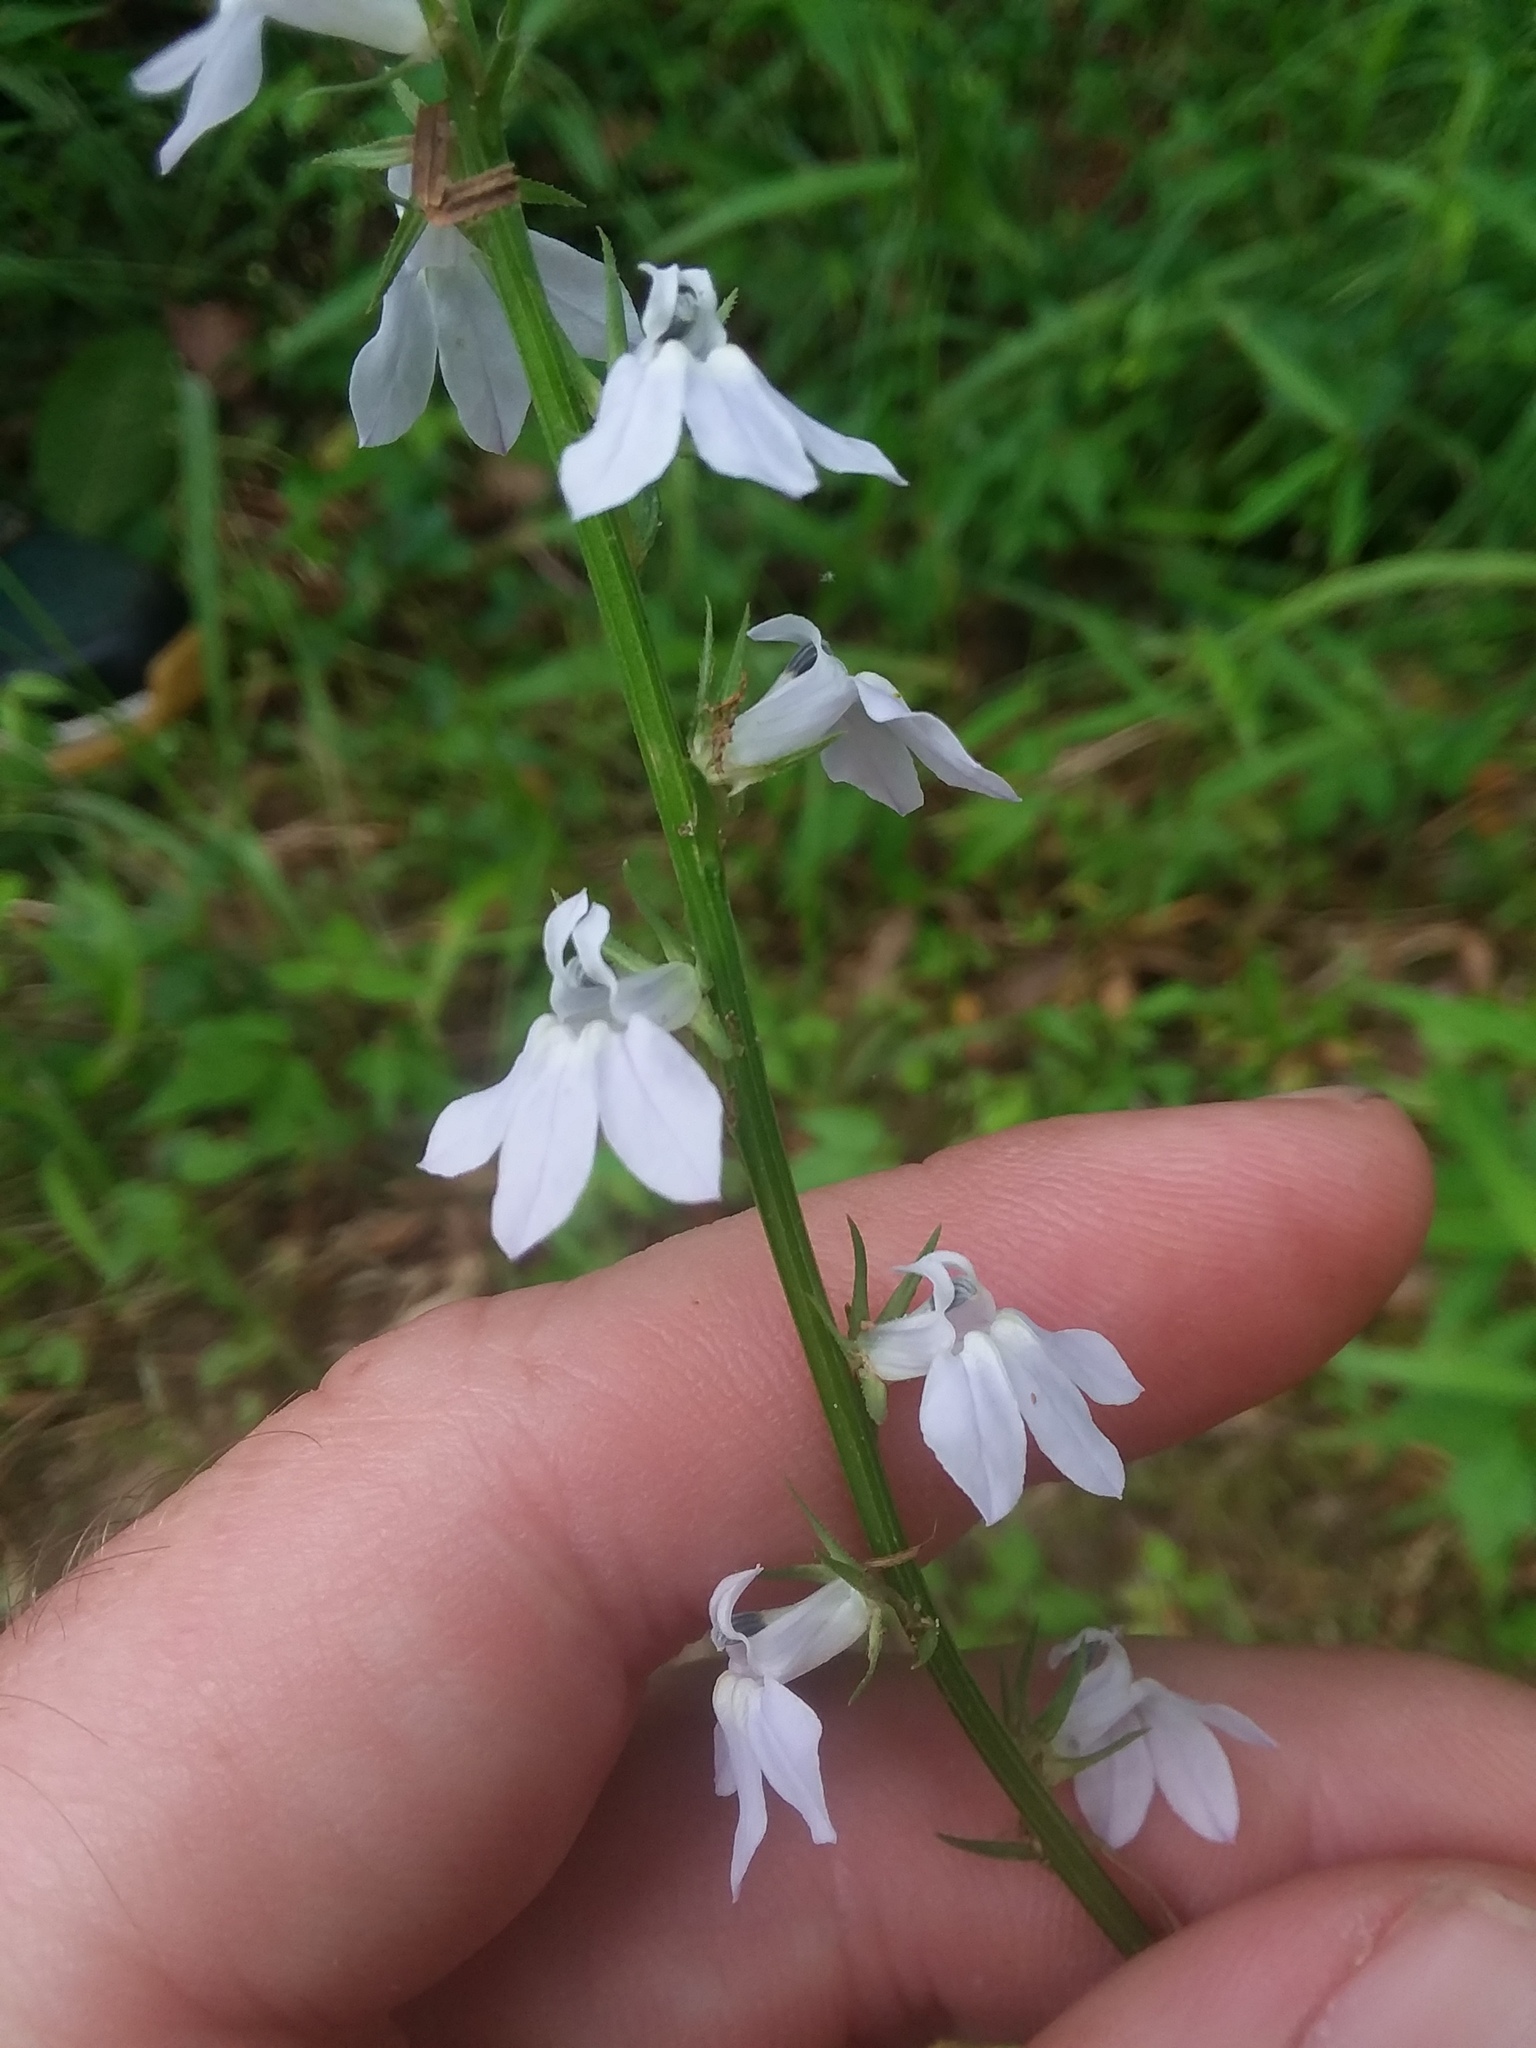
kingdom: Plantae
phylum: Tracheophyta
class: Magnoliopsida
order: Asterales
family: Campanulaceae
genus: Lobelia
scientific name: Lobelia appendiculata
